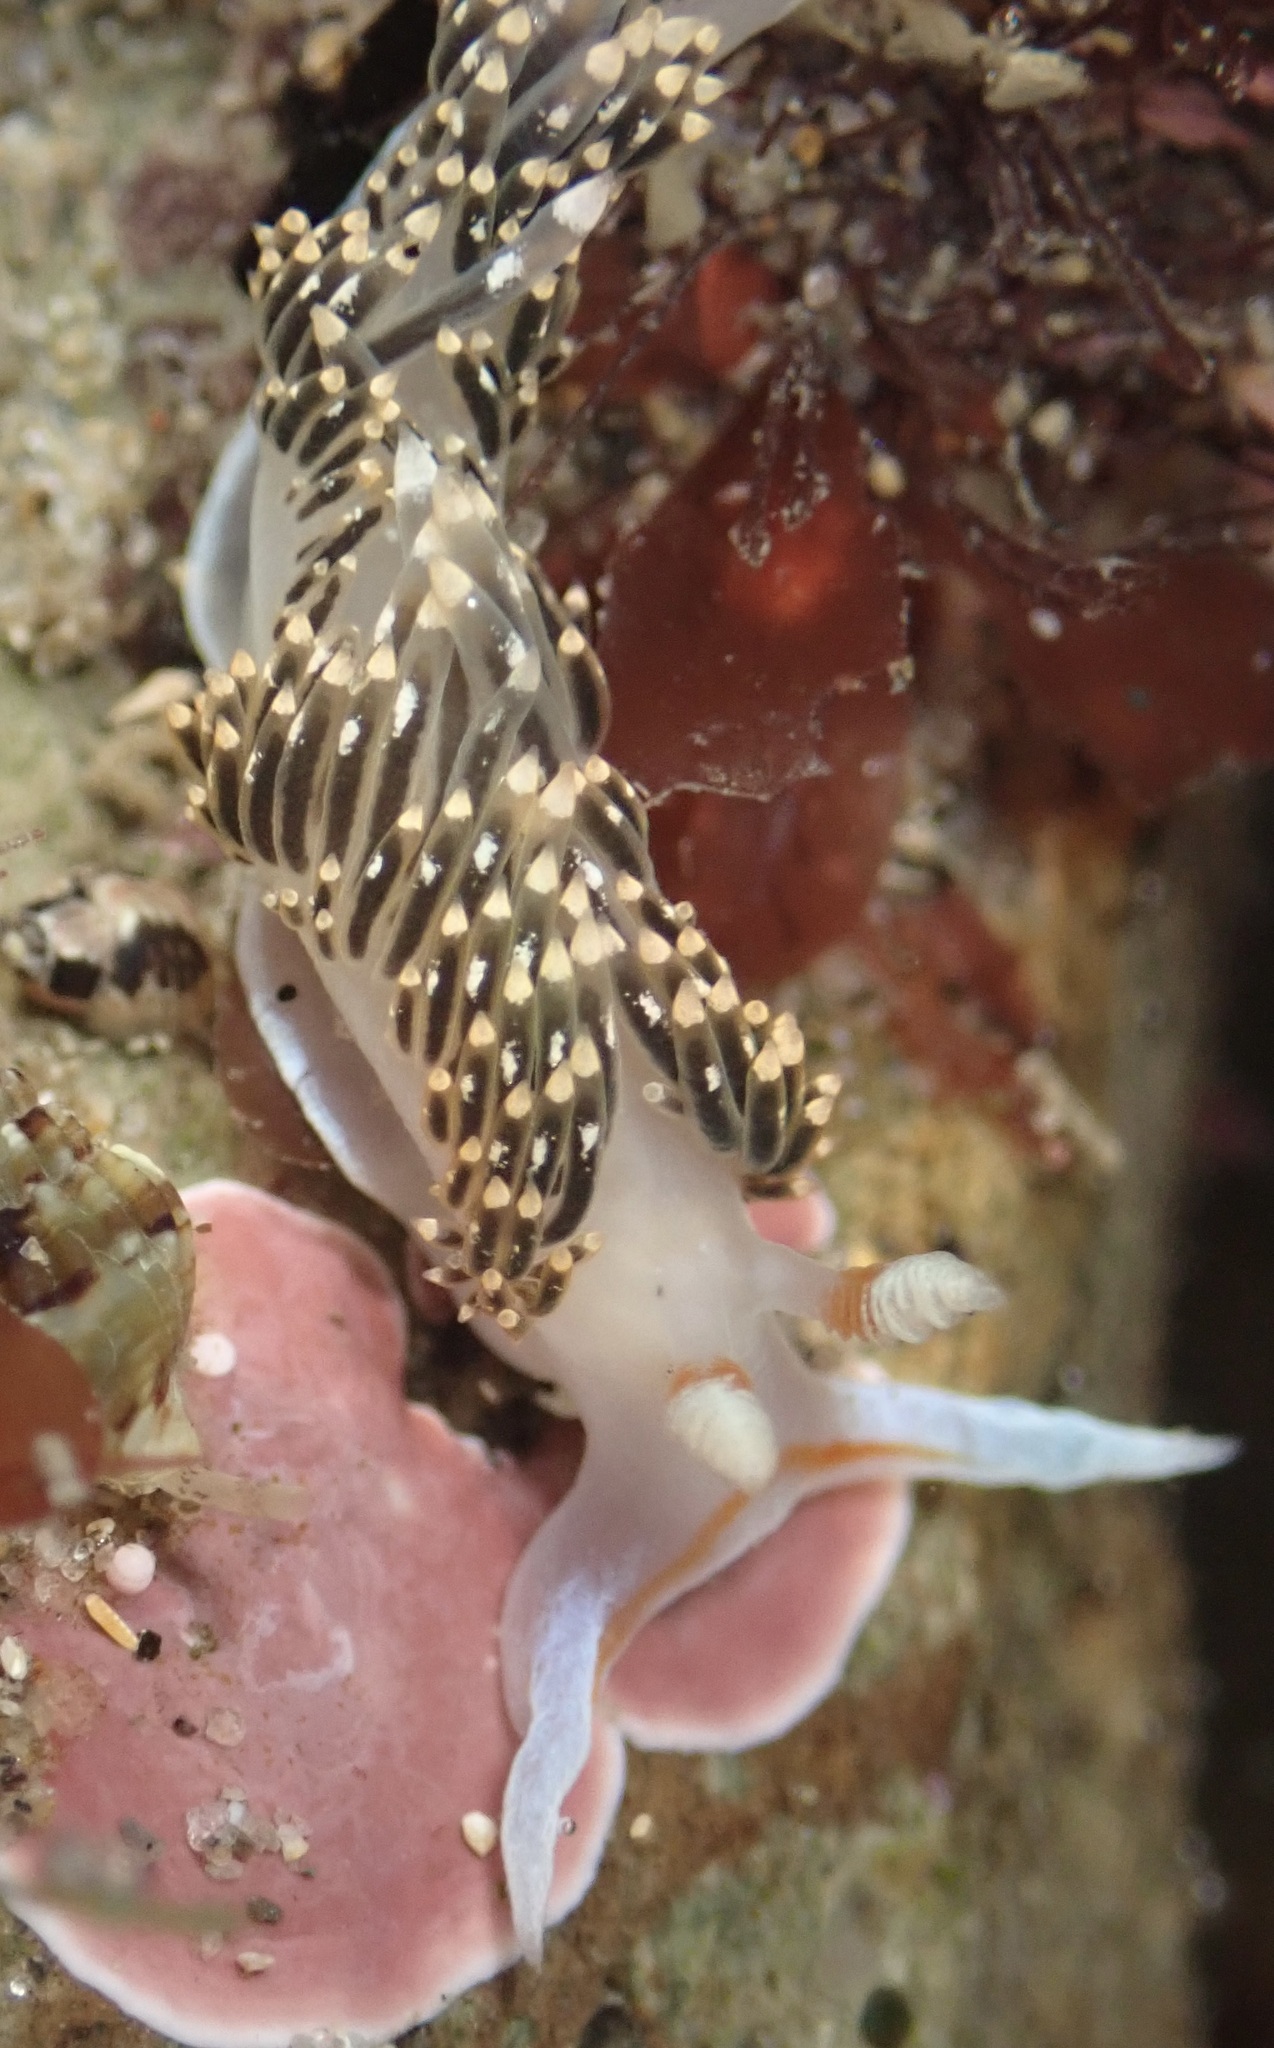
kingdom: Animalia
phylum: Mollusca
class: Gastropoda
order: Nudibranchia
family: Facelinidae
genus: Phidiana
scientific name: Phidiana hiltoni
